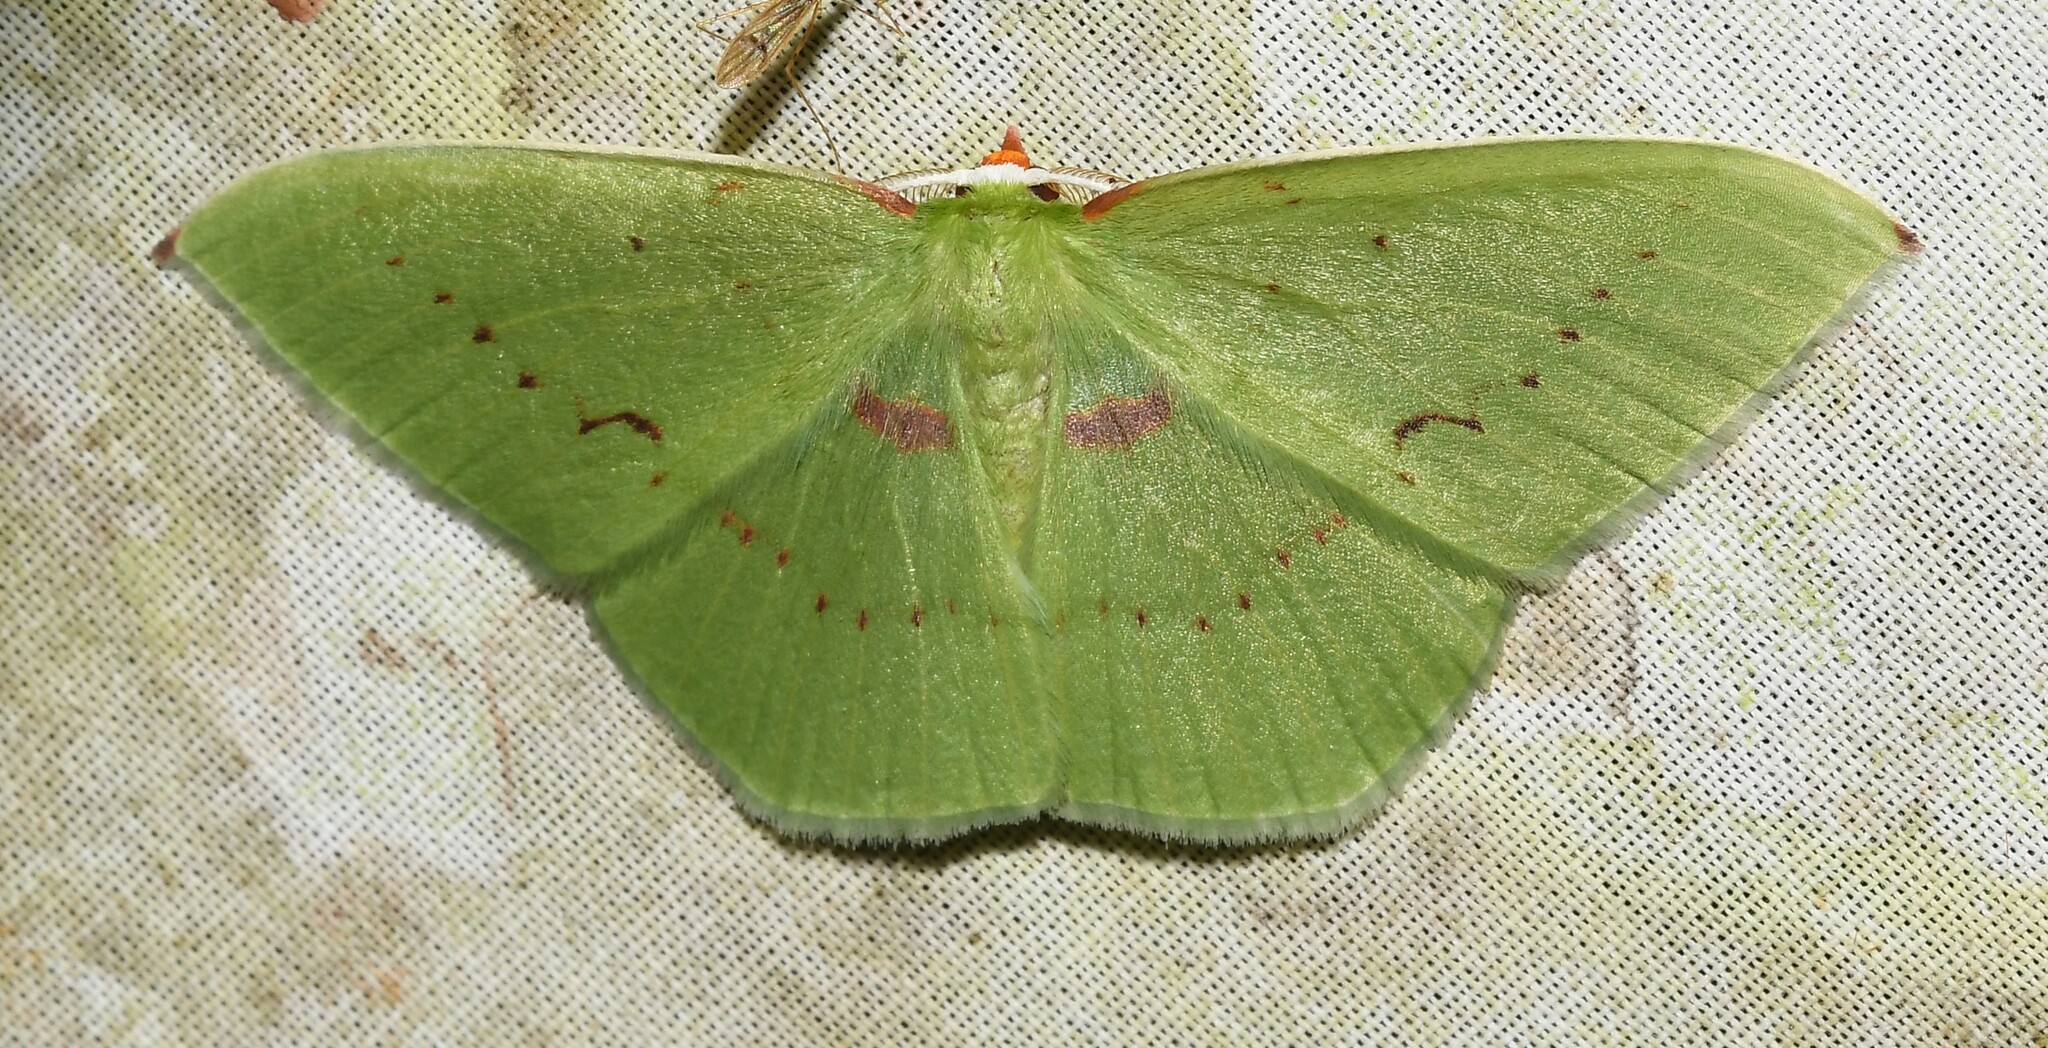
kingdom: Animalia
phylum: Arthropoda
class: Insecta
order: Lepidoptera
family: Geometridae
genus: Rhodochlora
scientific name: Rhodochlora basicostalis
